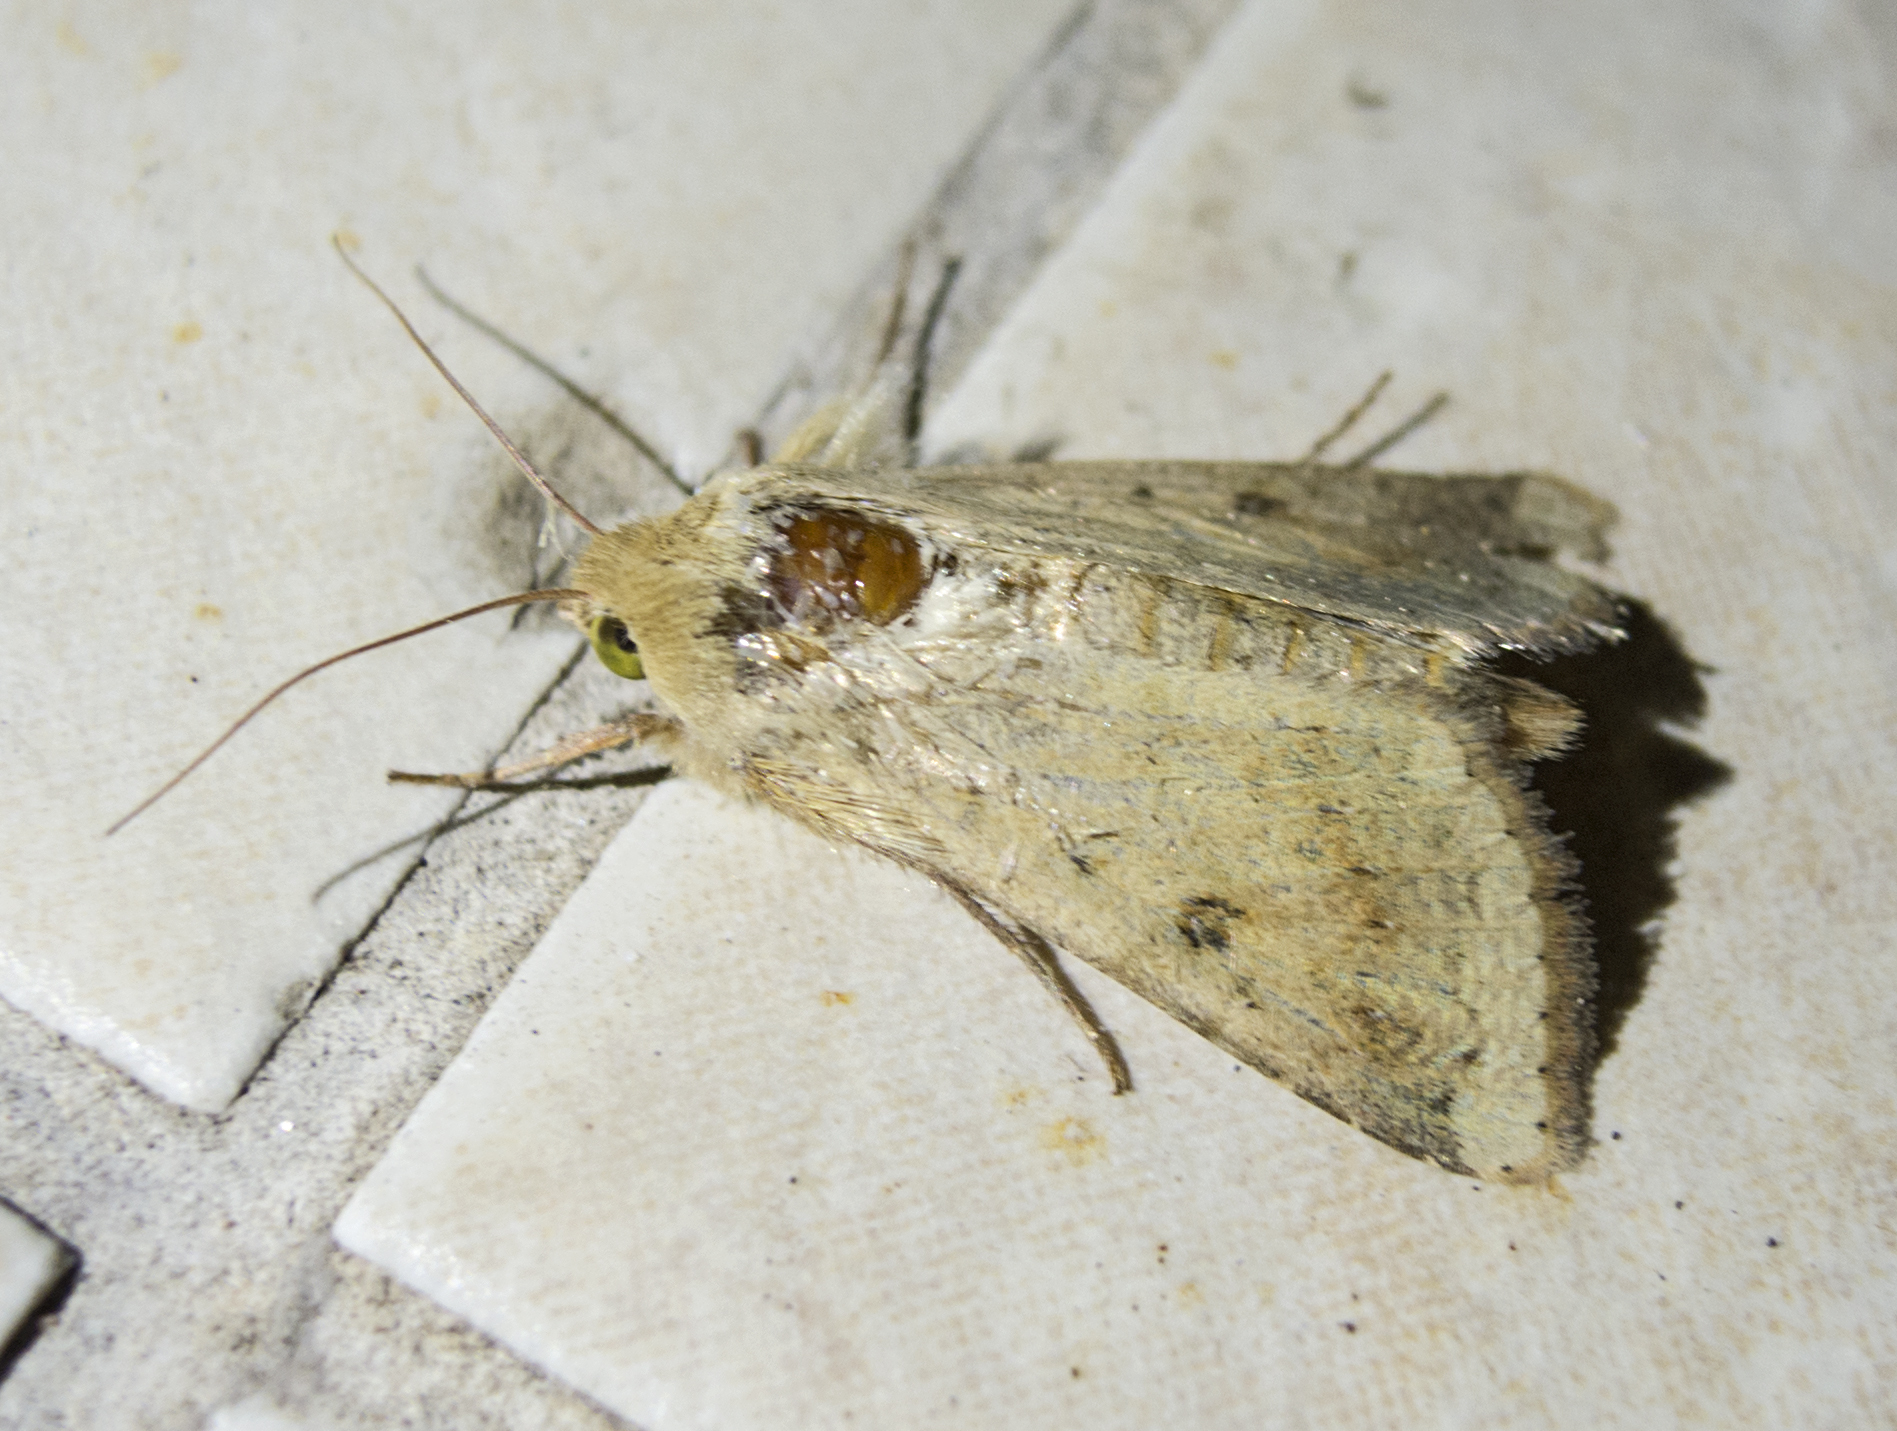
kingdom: Animalia
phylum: Arthropoda
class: Insecta
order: Lepidoptera
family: Noctuidae
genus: Helicoverpa
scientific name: Helicoverpa armigera
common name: Cotton bollworm
